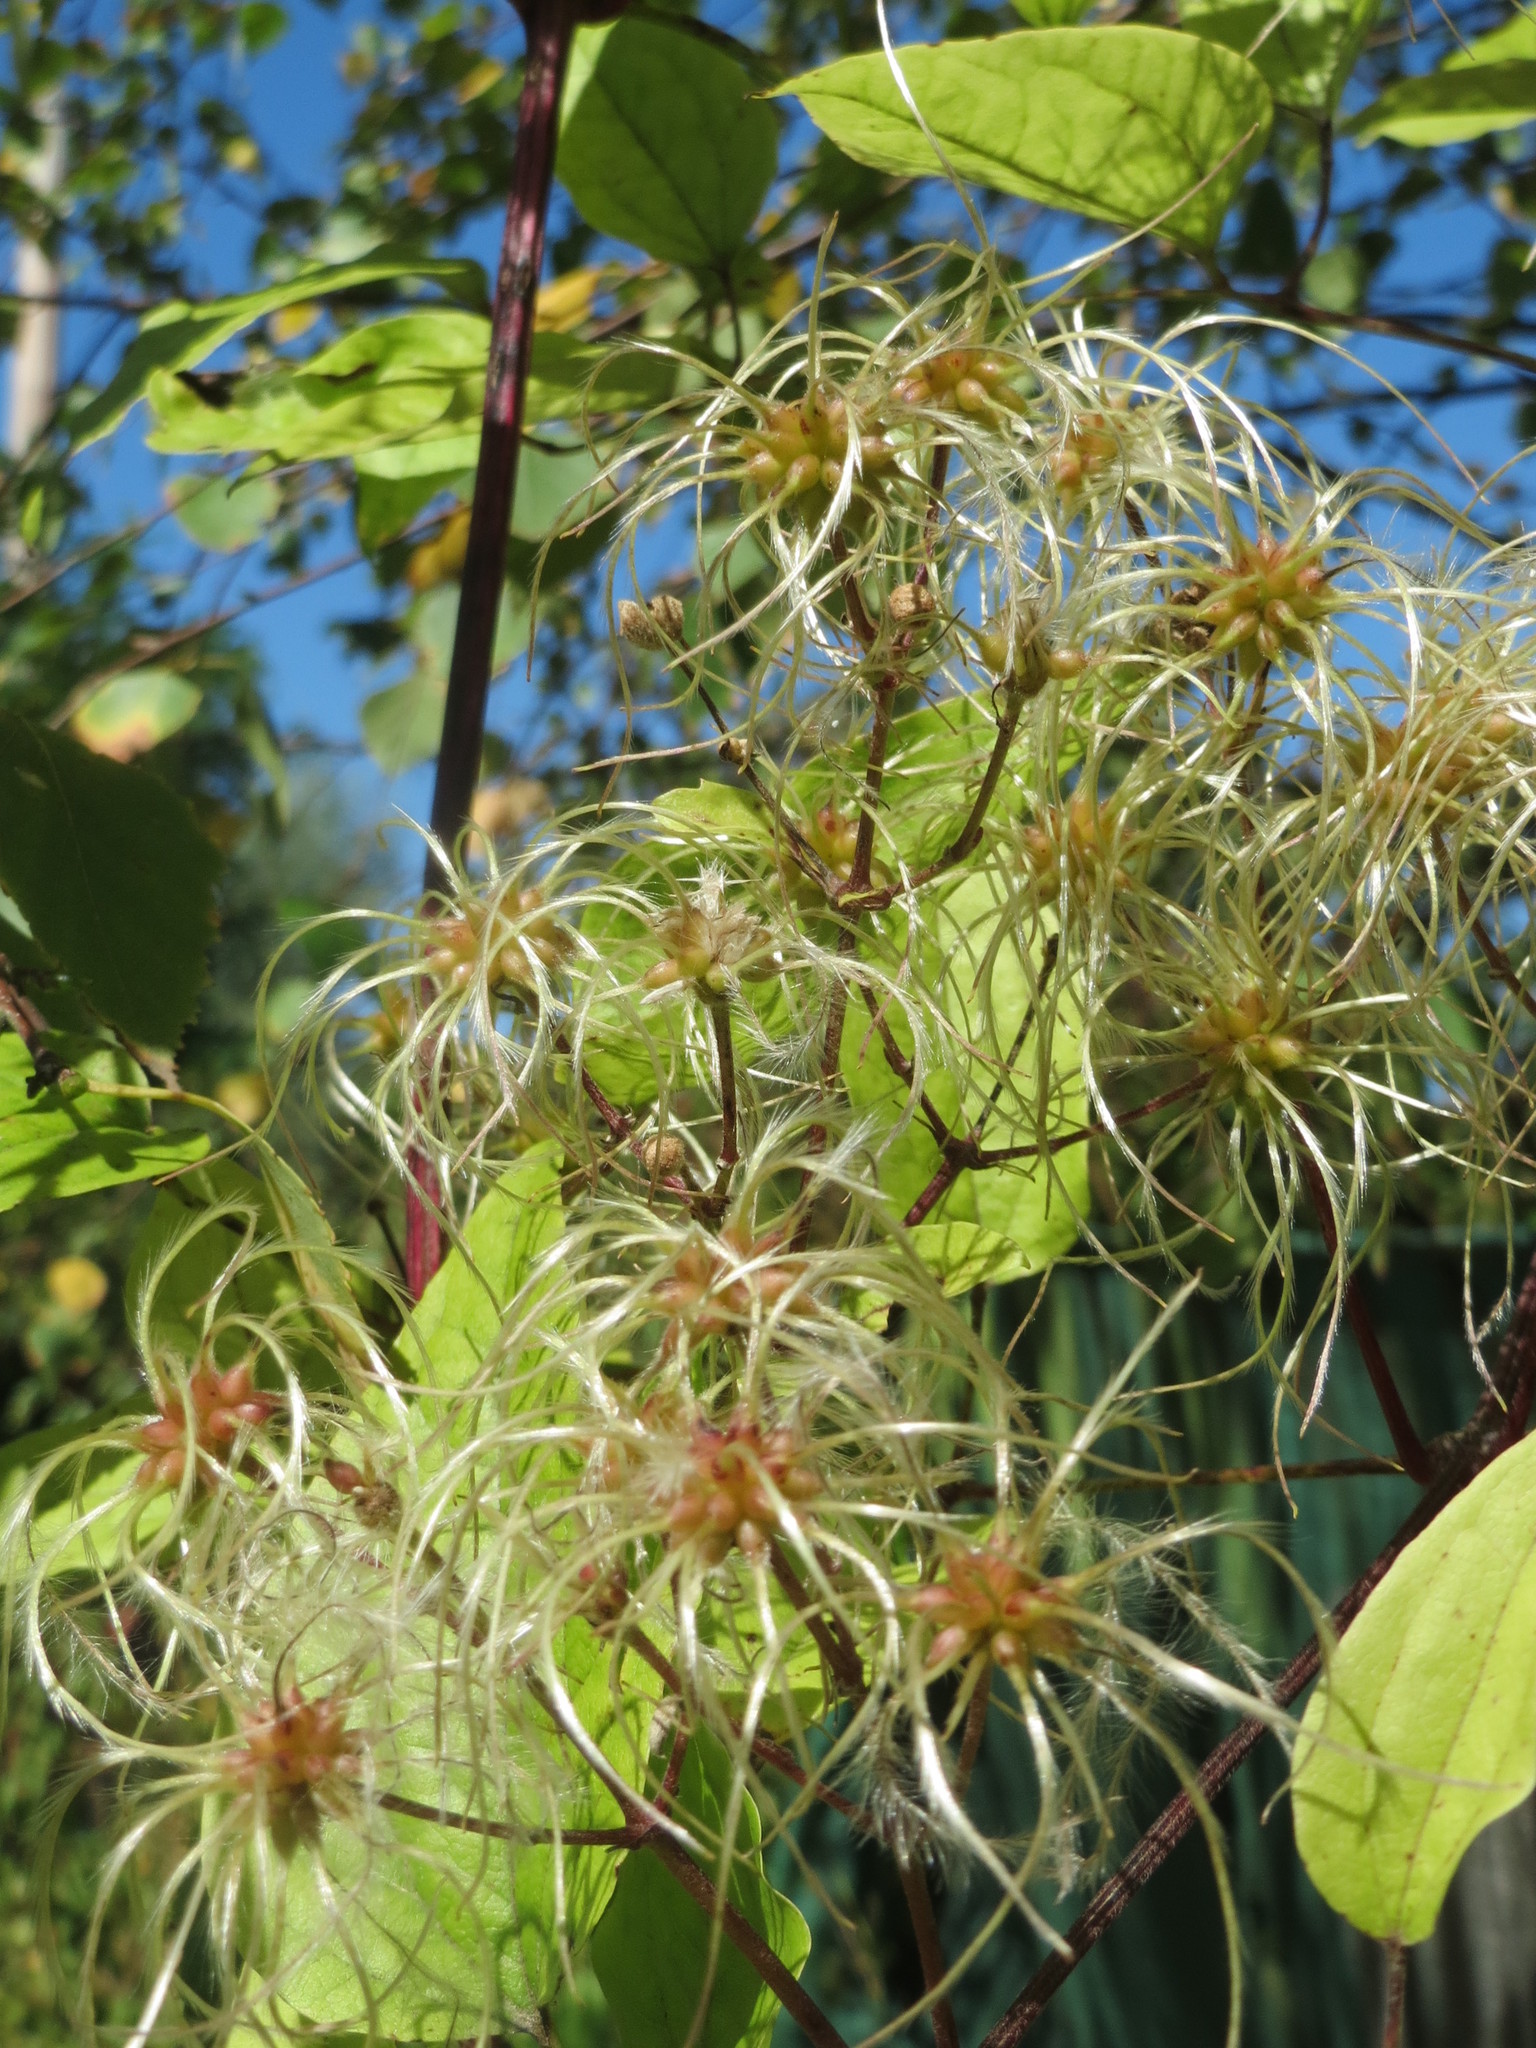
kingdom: Plantae
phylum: Tracheophyta
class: Magnoliopsida
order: Ranunculales
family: Ranunculaceae
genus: Clematis
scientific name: Clematis vitalba
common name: Evergreen clematis
